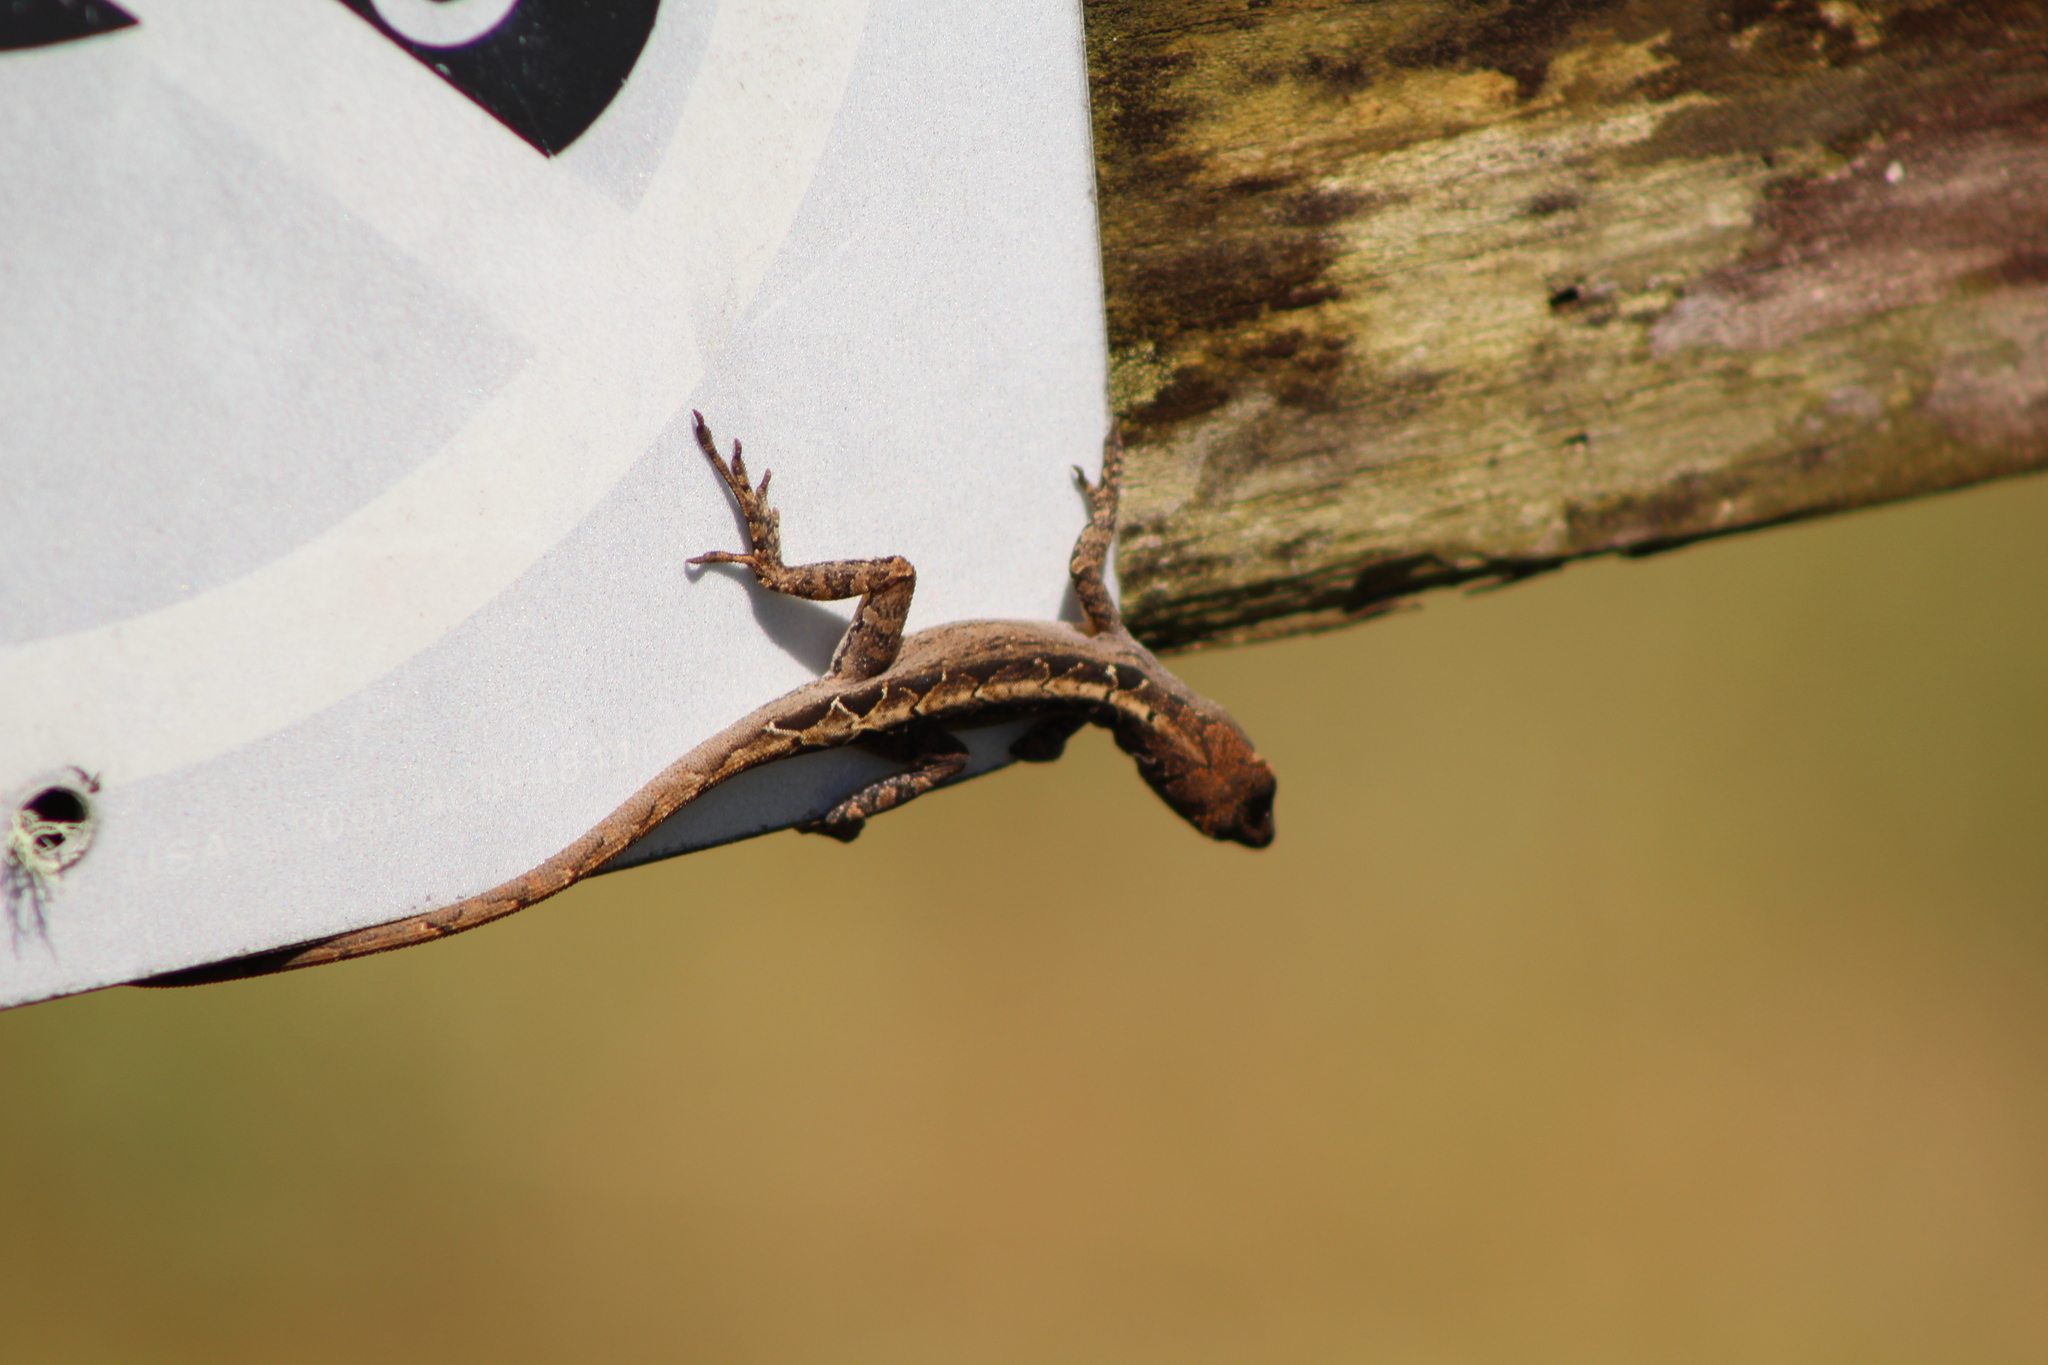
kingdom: Animalia
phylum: Chordata
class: Squamata
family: Dactyloidae
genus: Anolis
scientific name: Anolis sagrei
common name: Brown anole
